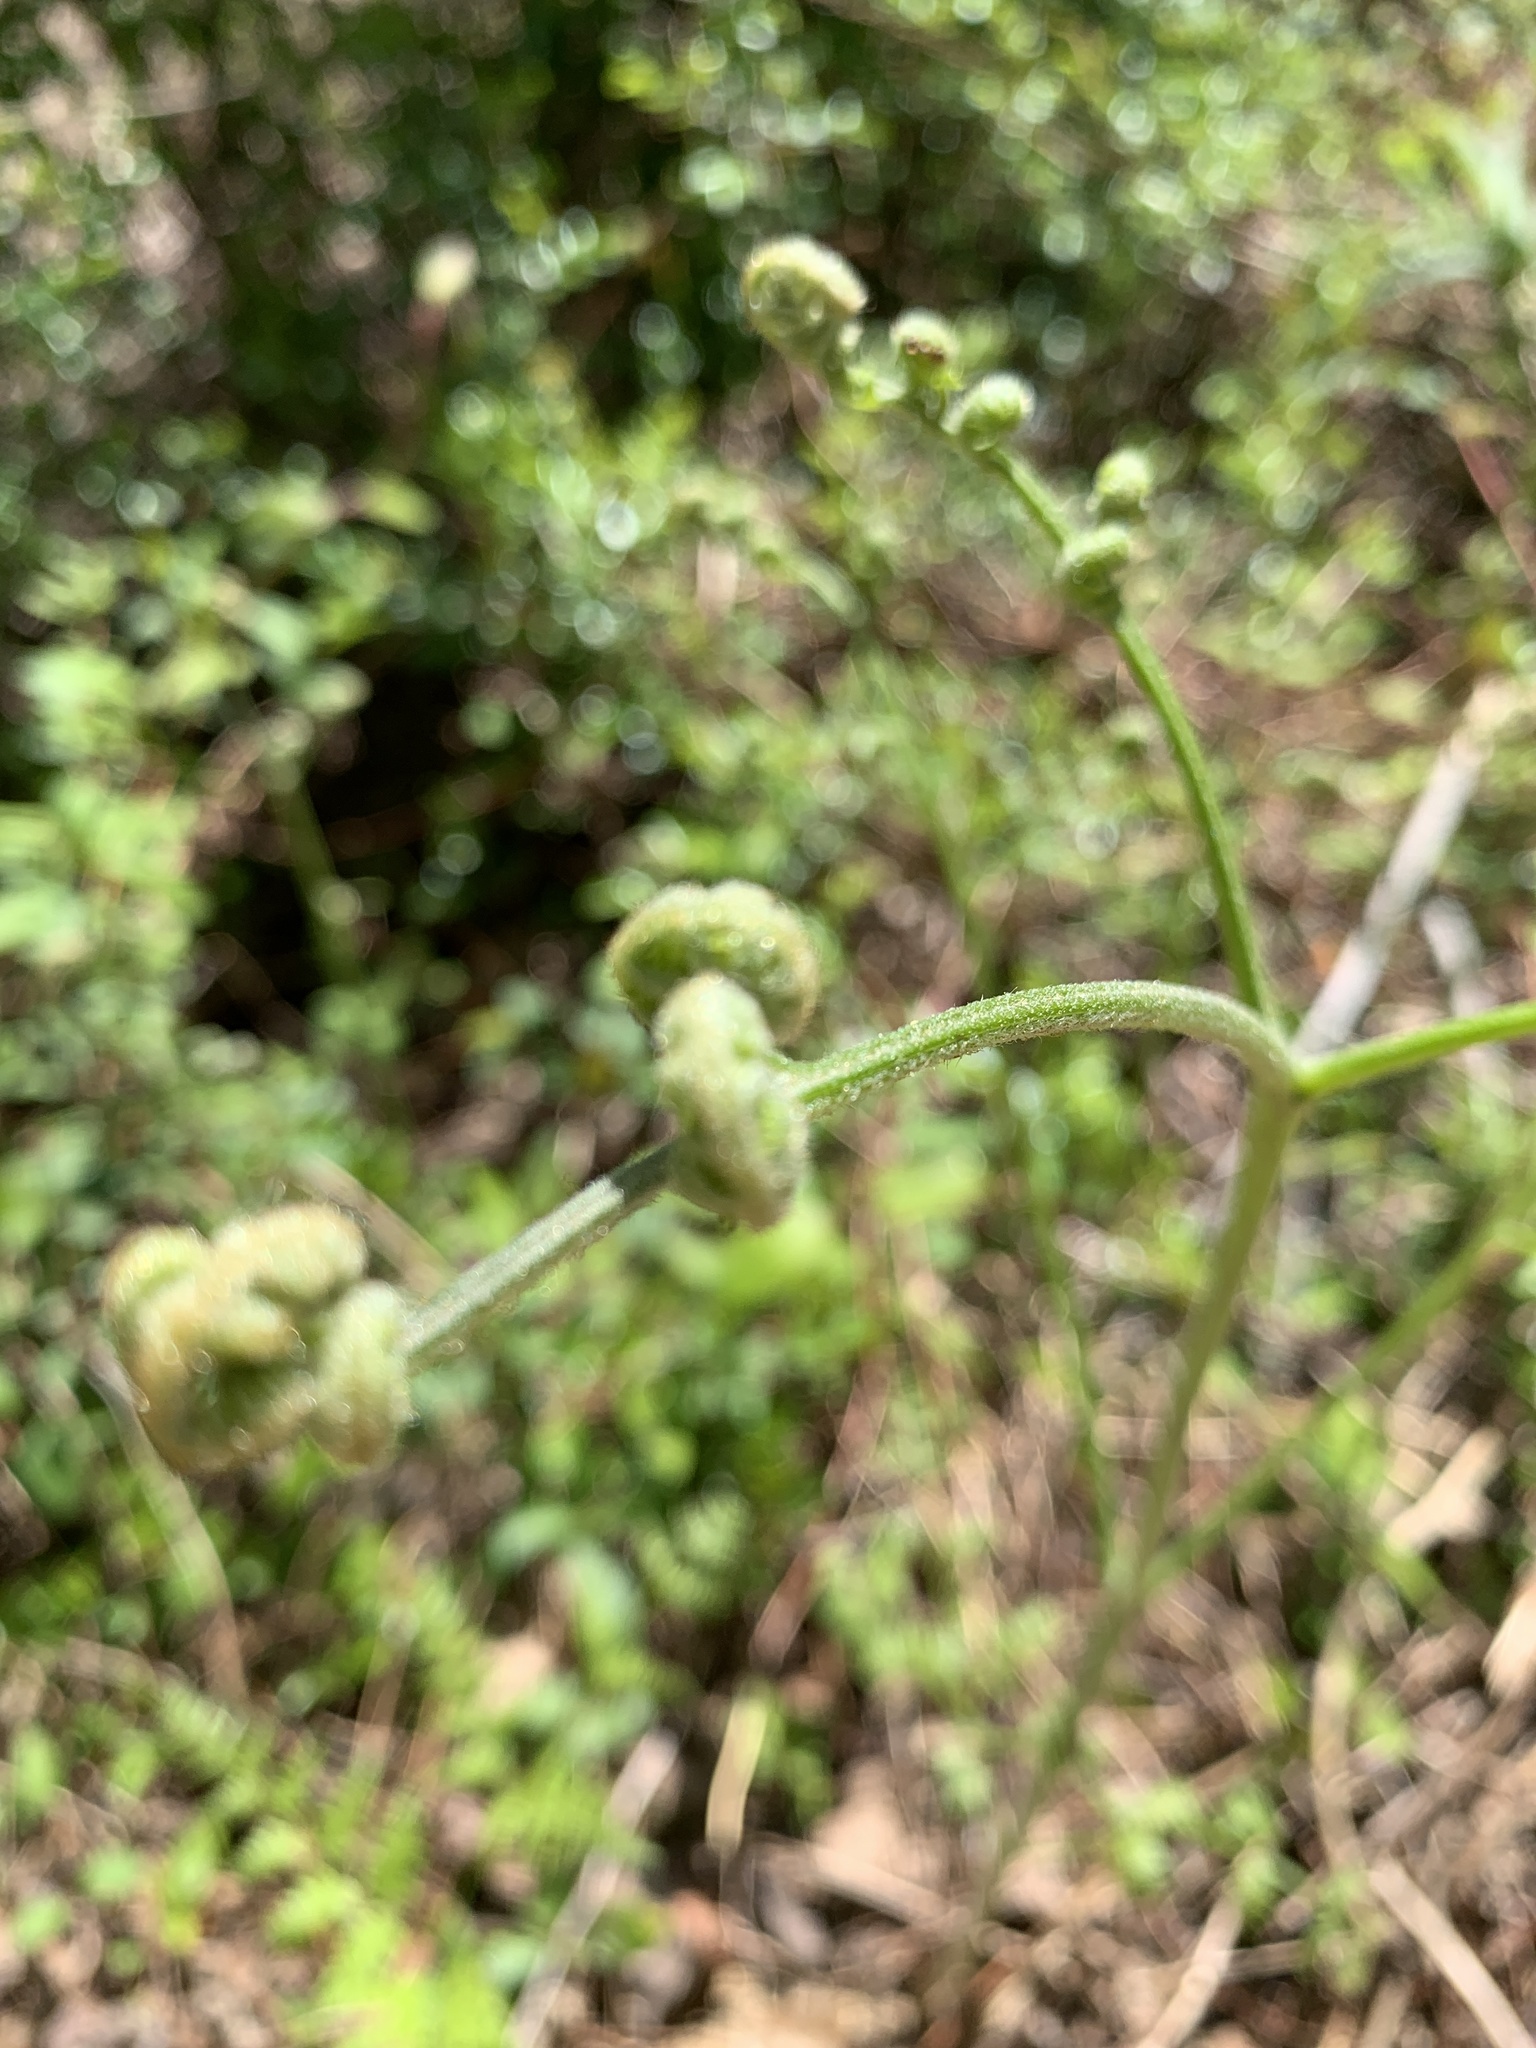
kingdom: Plantae
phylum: Tracheophyta
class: Polypodiopsida
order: Polypodiales
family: Dennstaedtiaceae
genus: Pteridium
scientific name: Pteridium aquilinum
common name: Bracken
